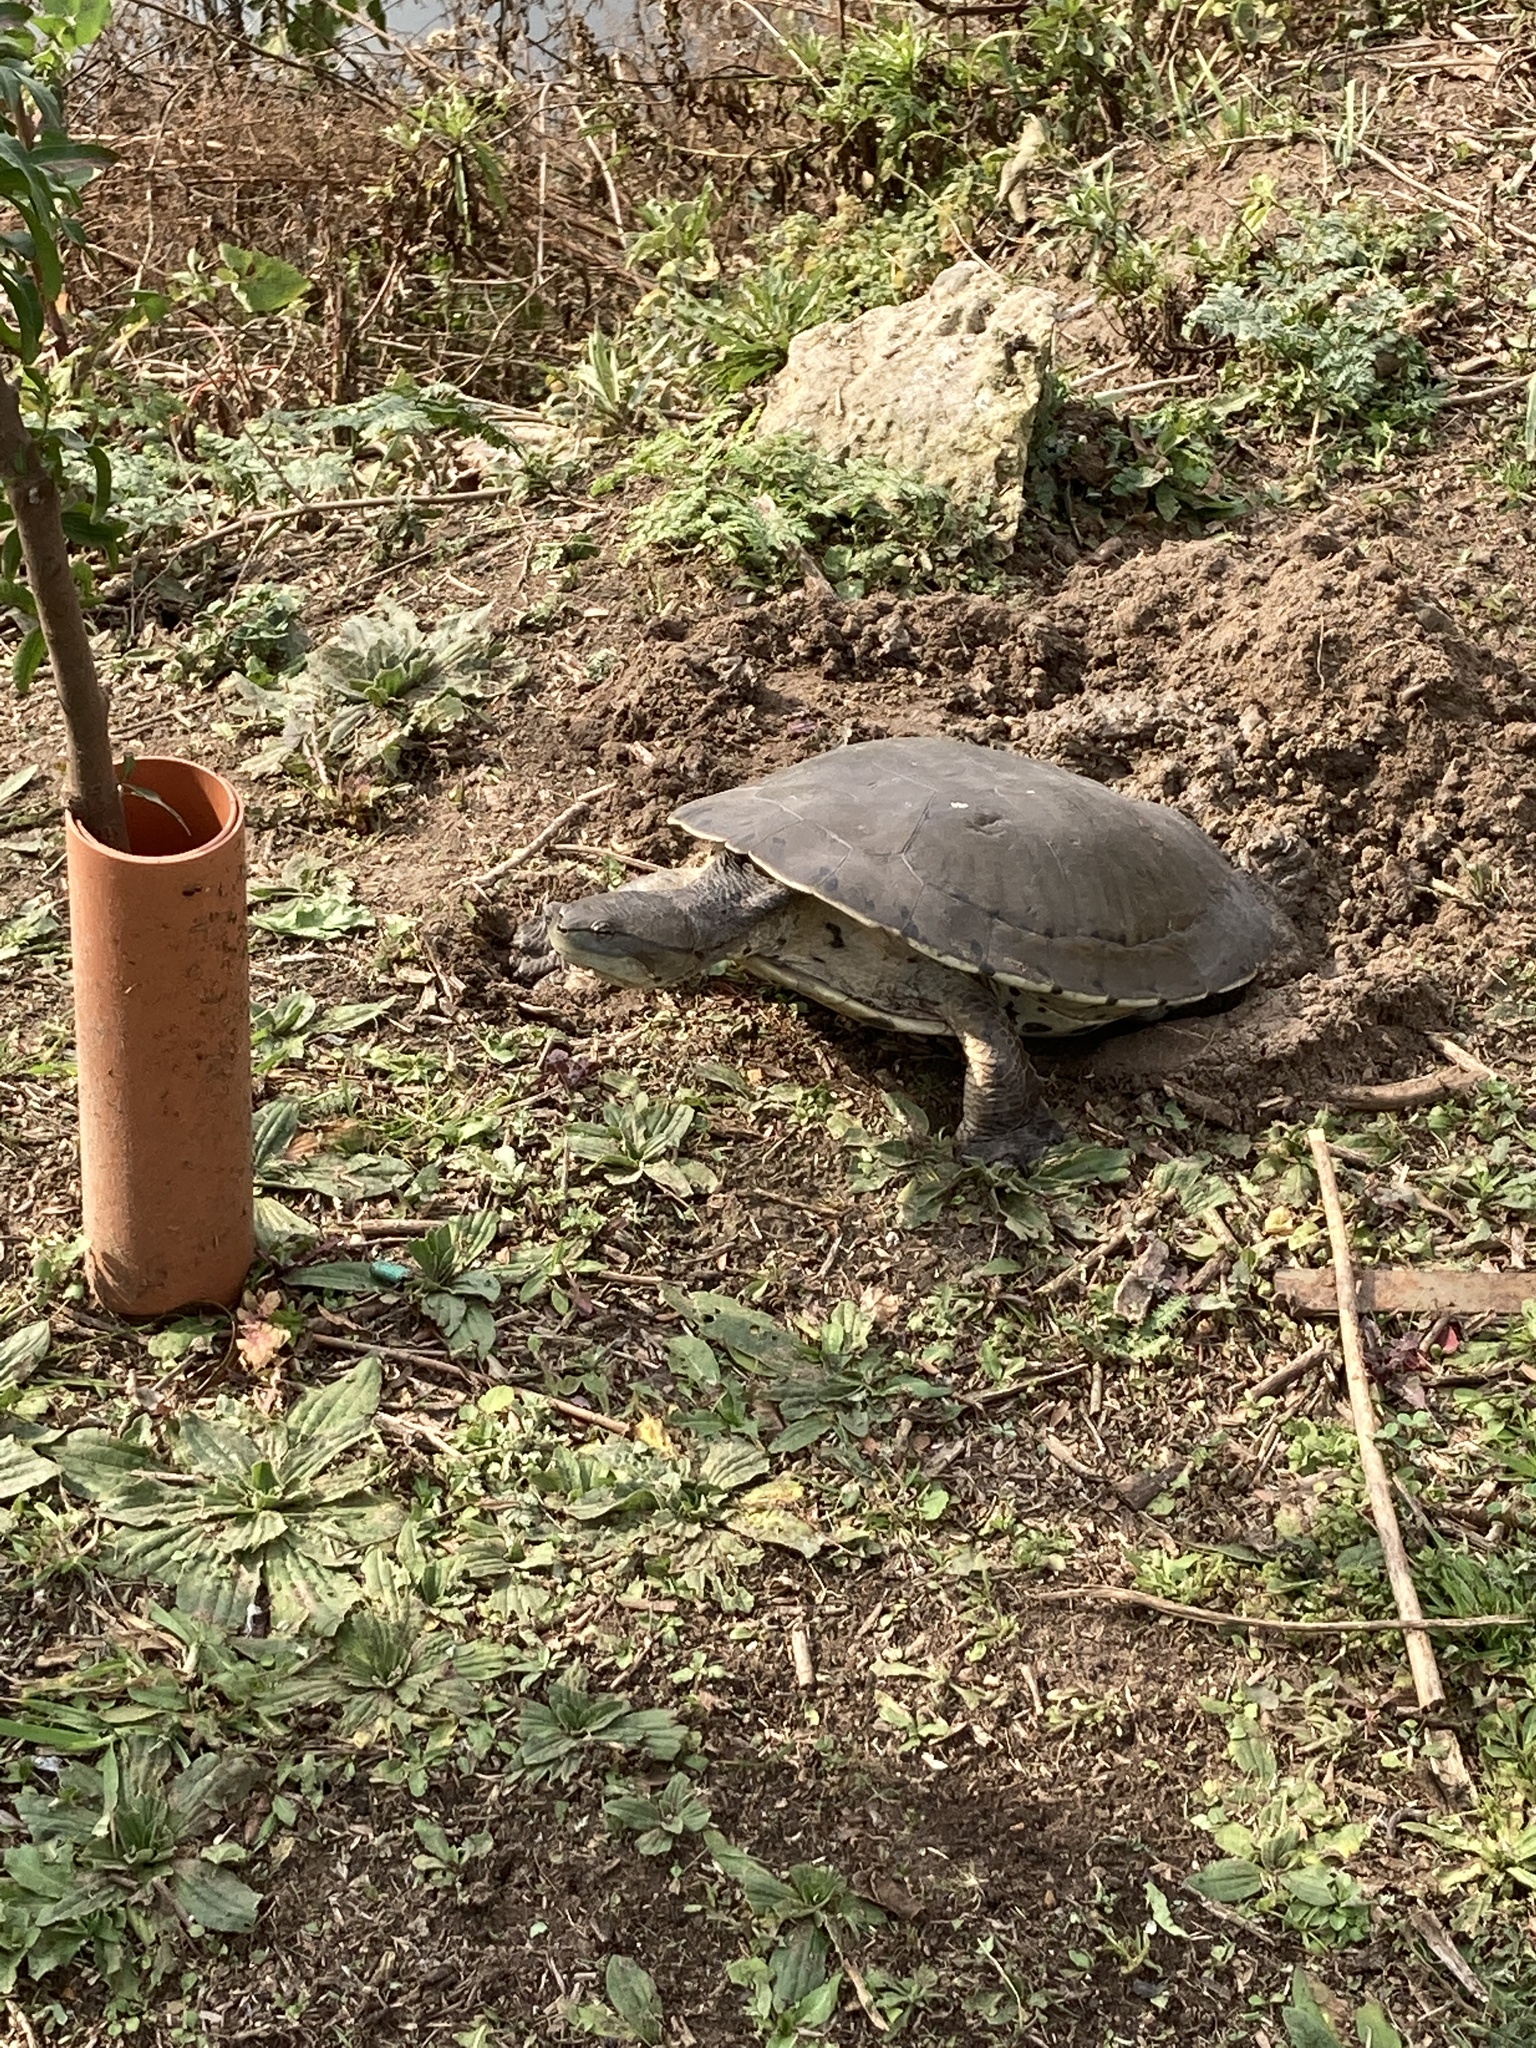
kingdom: Animalia
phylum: Chordata
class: Testudines
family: Chelidae
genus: Phrynops
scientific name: Phrynops hilarii
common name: Side-necked turtle of saint hillaire
